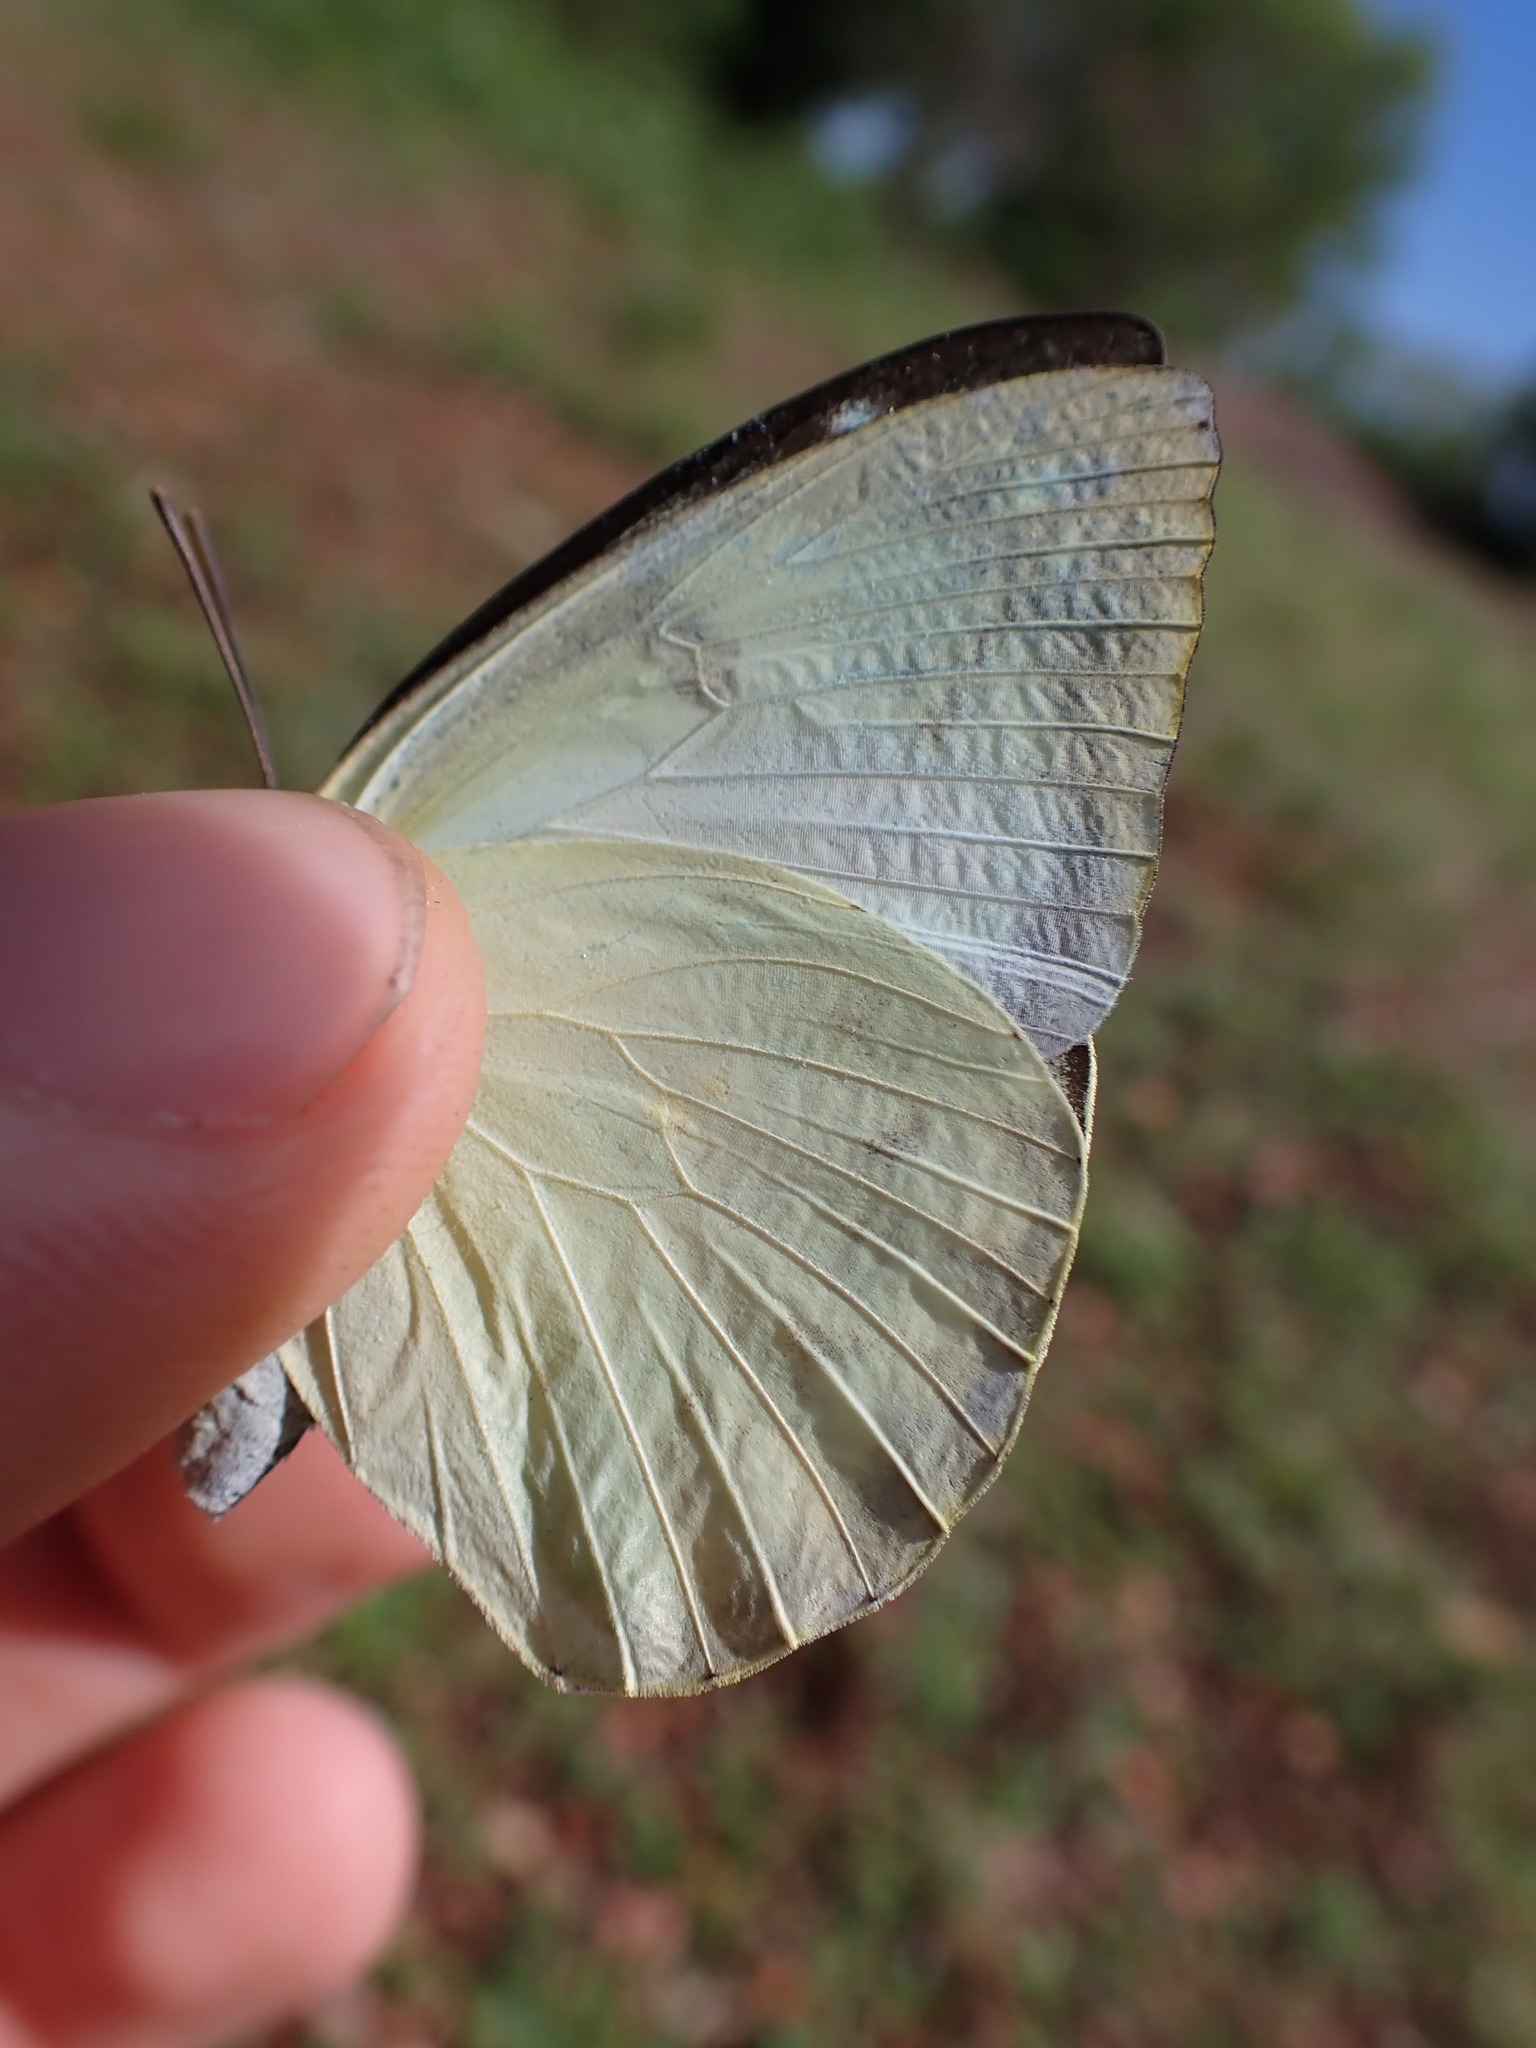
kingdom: Animalia
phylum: Arthropoda
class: Insecta
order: Lepidoptera
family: Pieridae
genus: Catopsilia
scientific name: Catopsilia pomona
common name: Common emigrant
